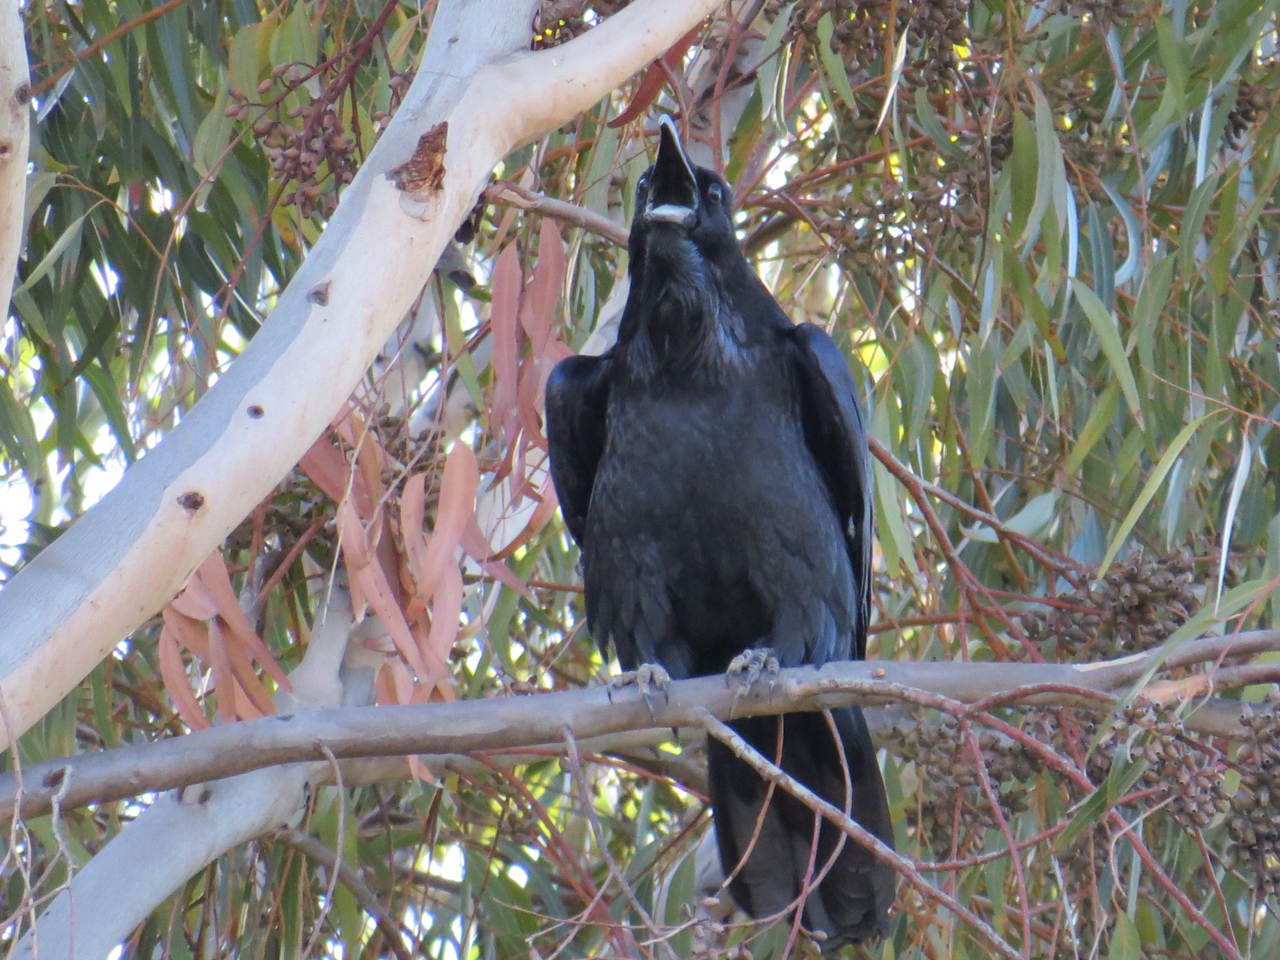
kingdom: Animalia
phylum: Chordata
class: Aves
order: Passeriformes
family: Corvidae
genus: Corvus
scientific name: Corvus corax
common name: Common raven
